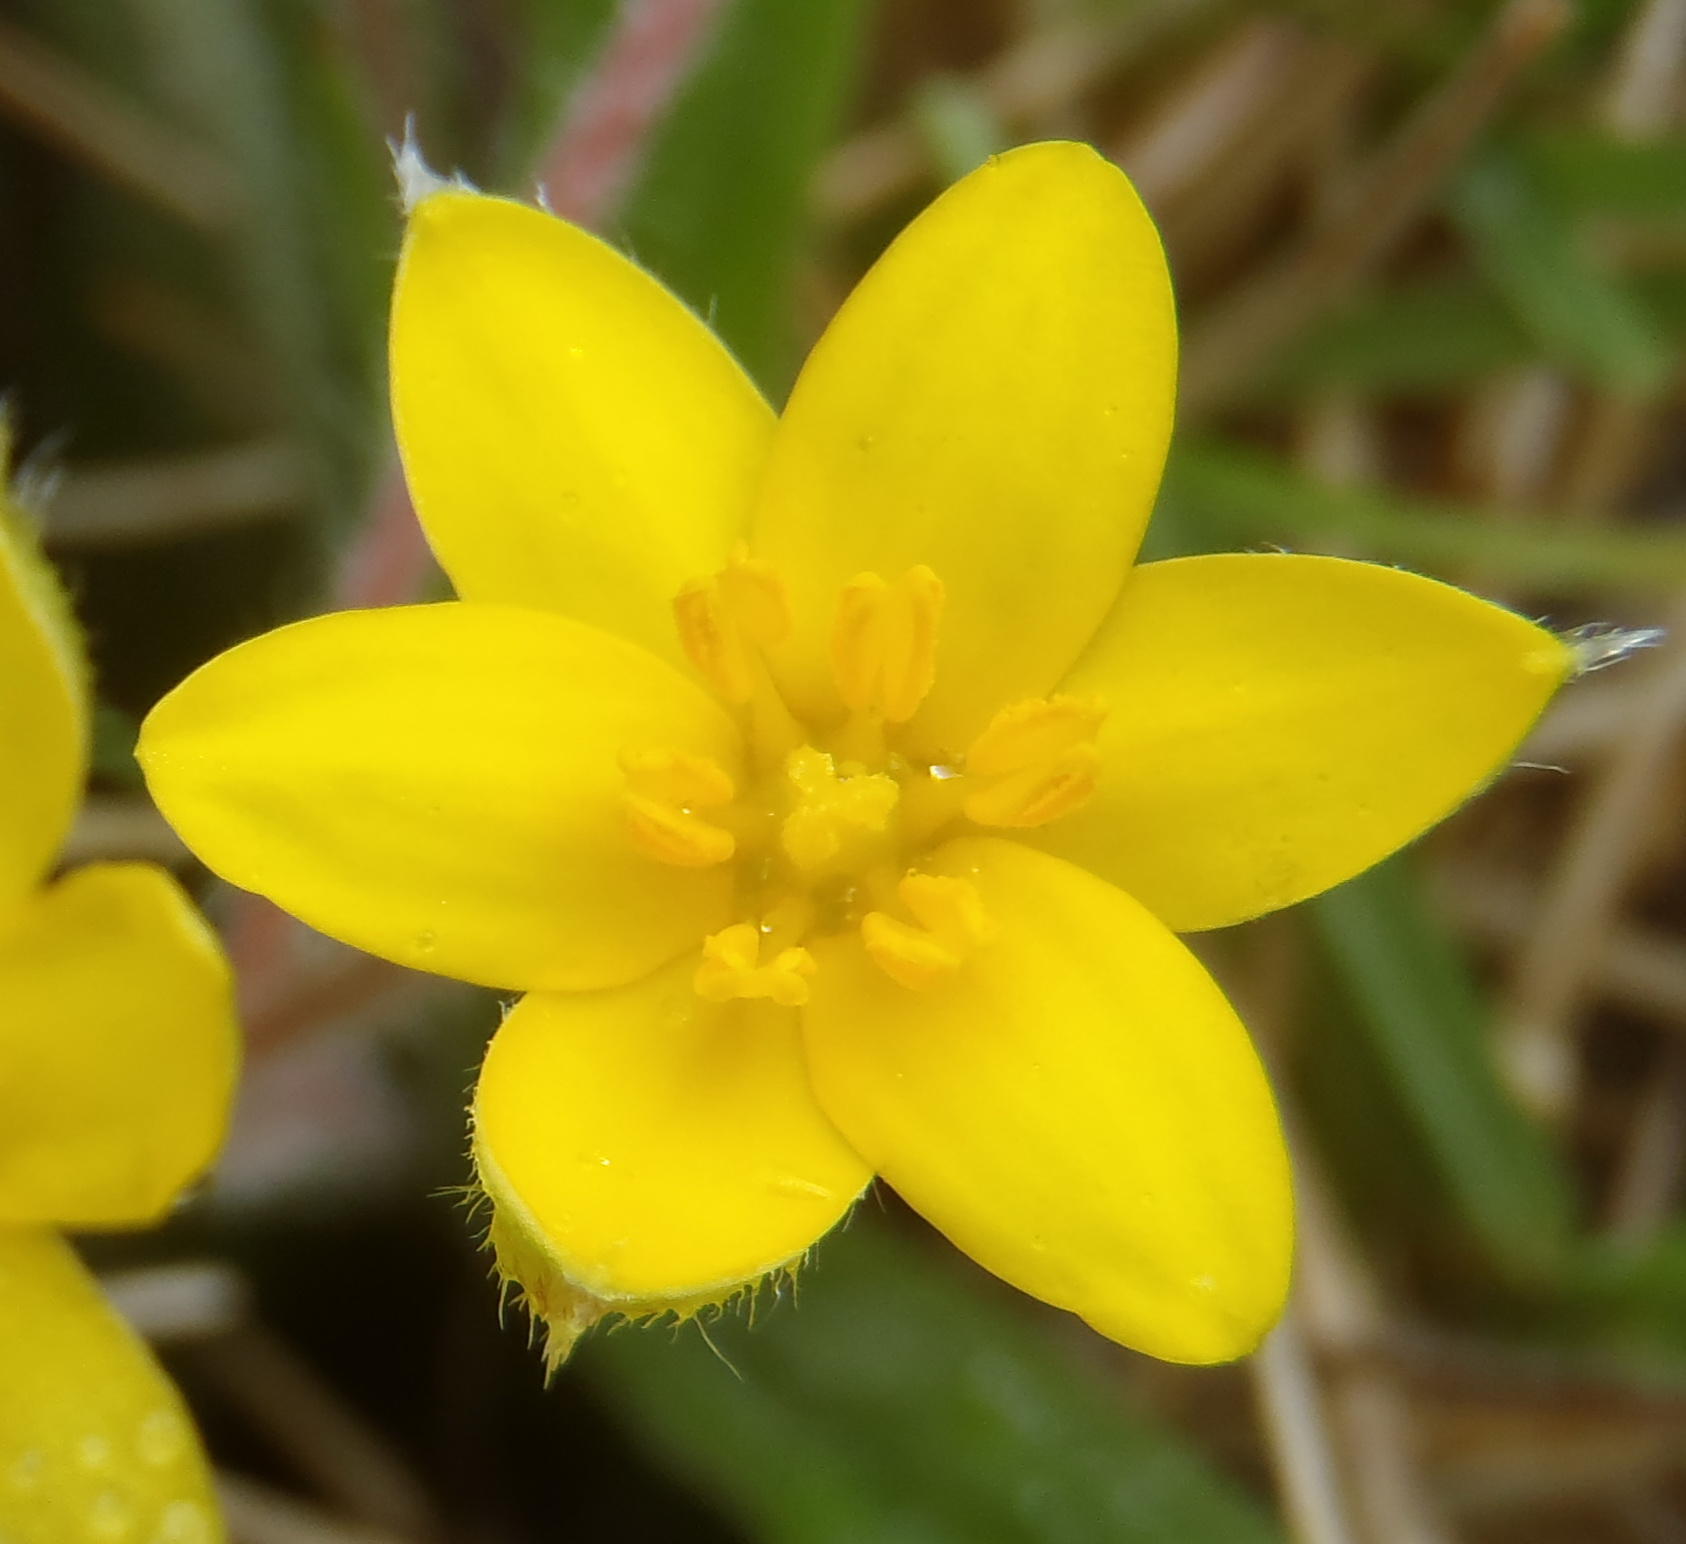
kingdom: Plantae
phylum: Tracheophyta
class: Liliopsida
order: Asparagales
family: Hypoxidaceae
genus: Hypoxis
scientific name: Hypoxis sobolifera
